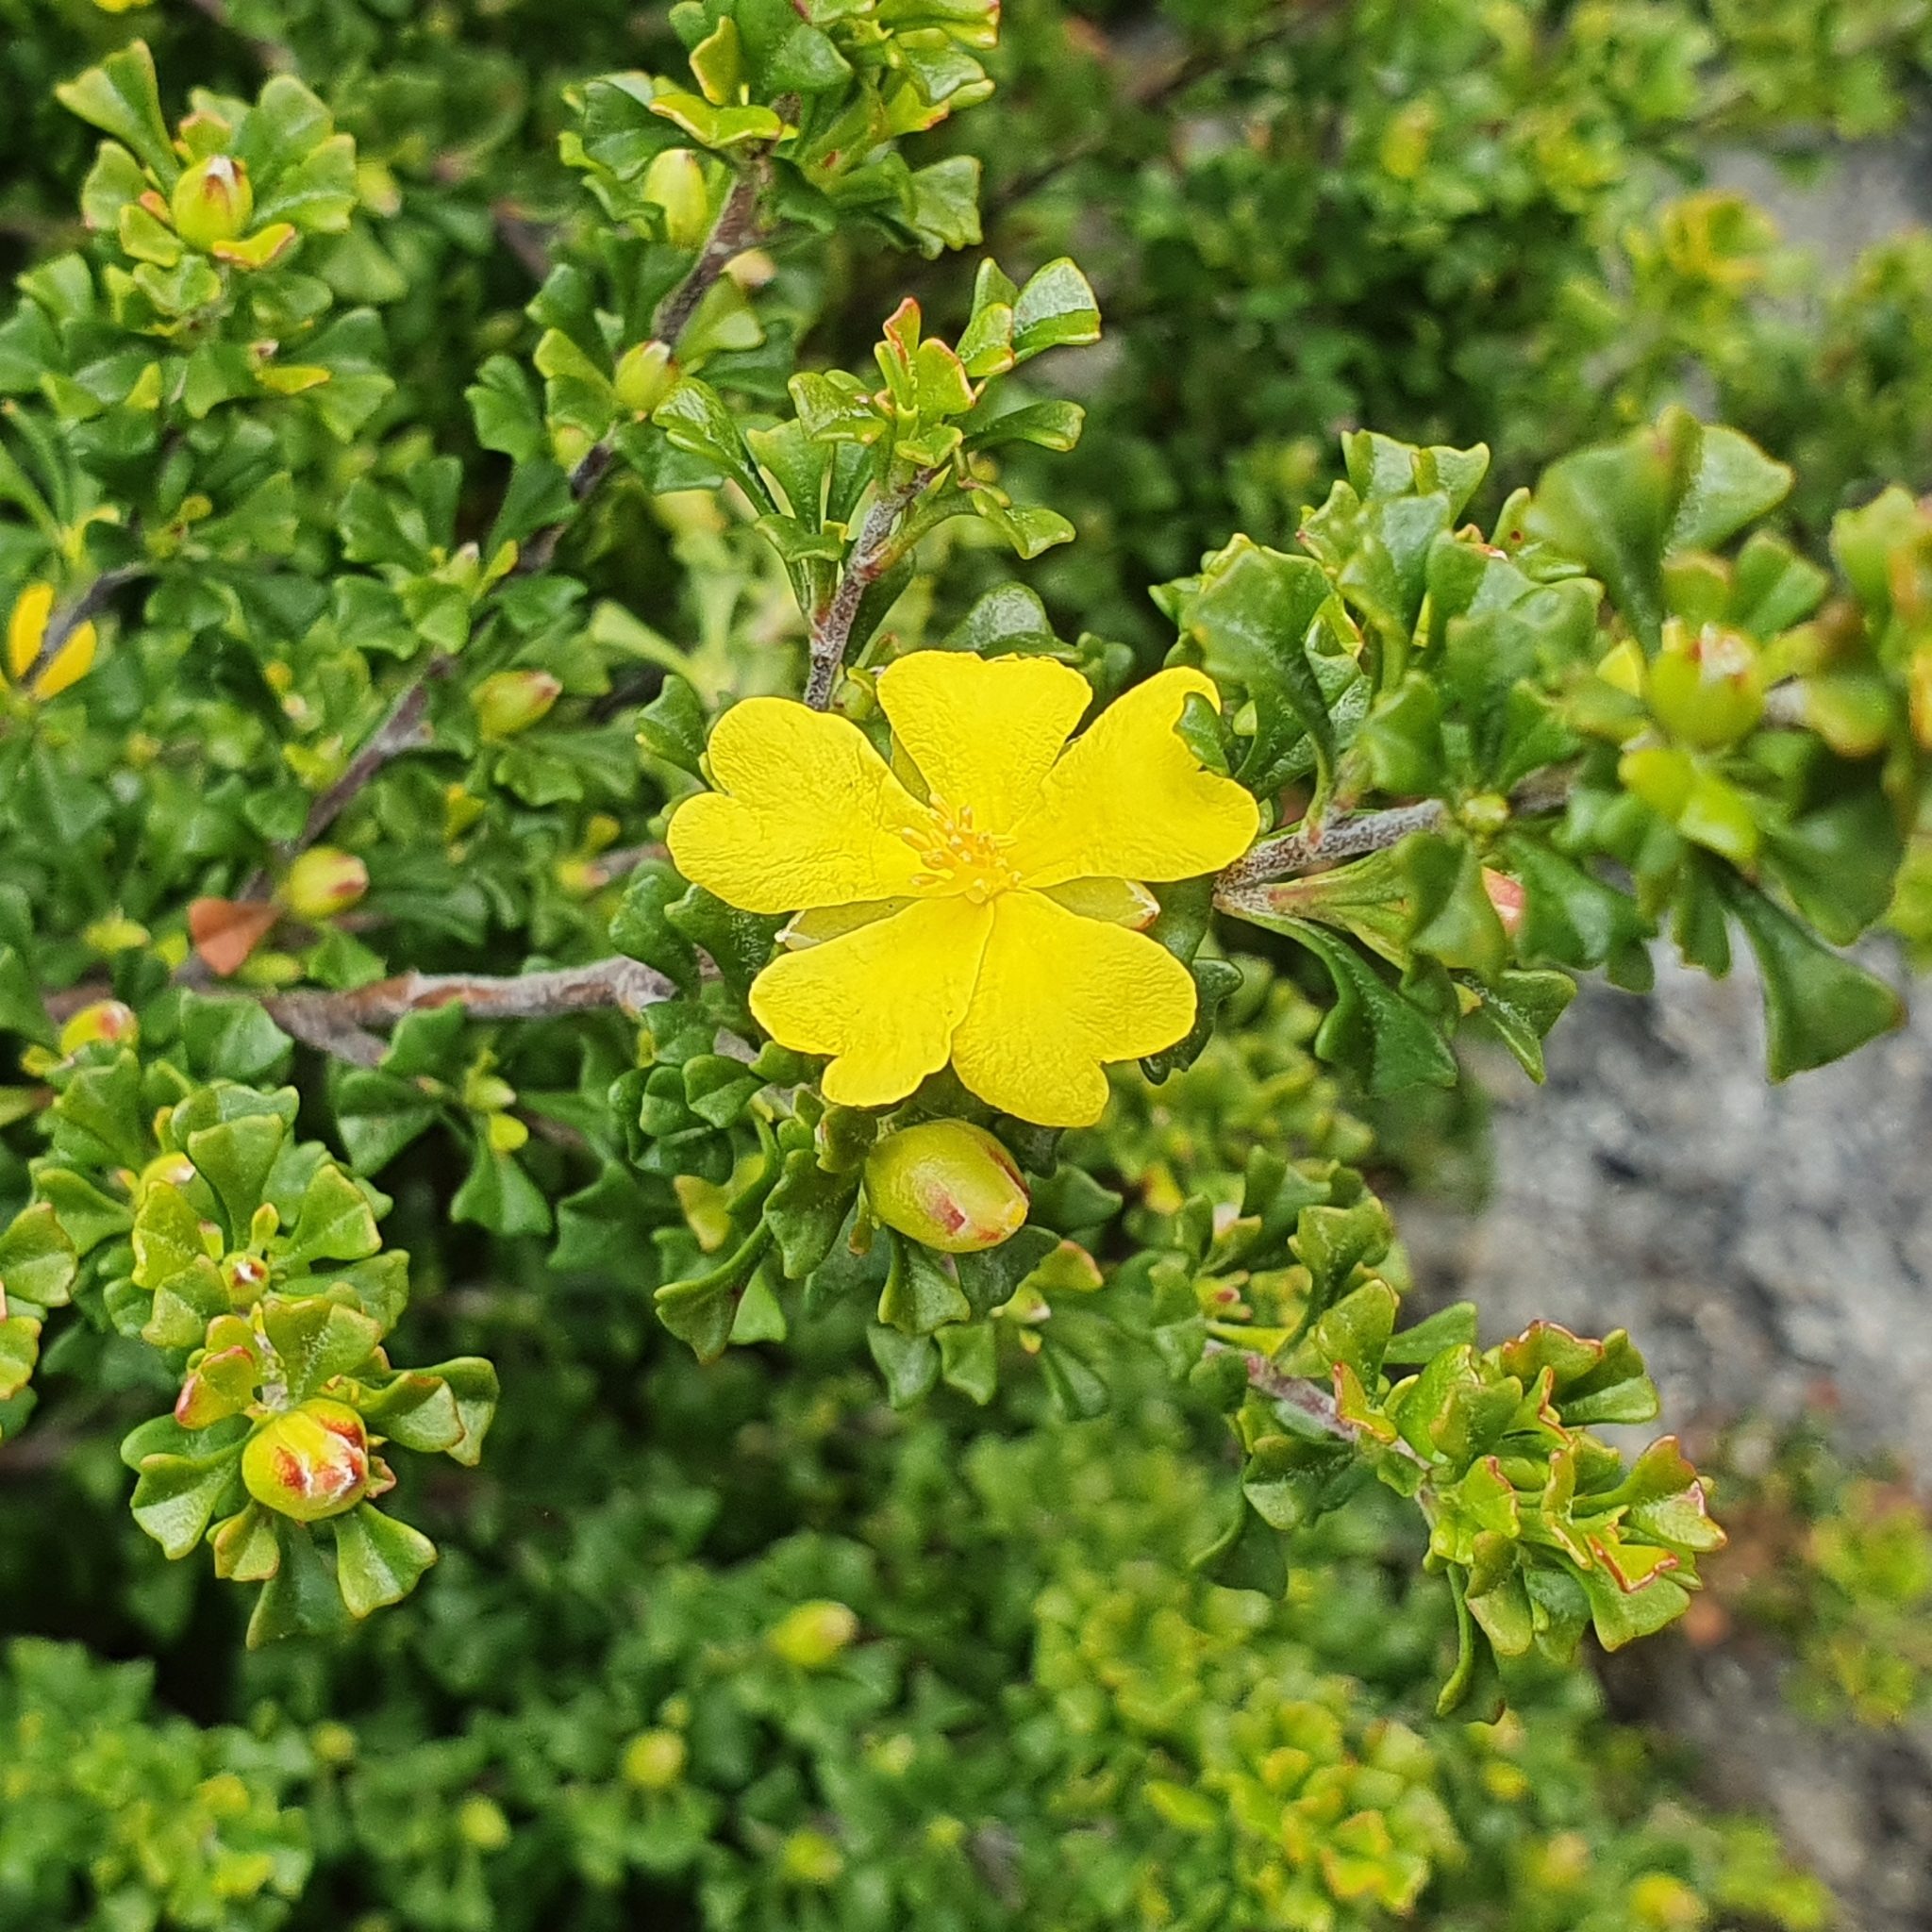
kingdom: Plantae
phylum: Tracheophyta
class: Magnoliopsida
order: Dilleniales
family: Dilleniaceae
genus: Hibbertia
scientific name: Hibbertia monogyna
